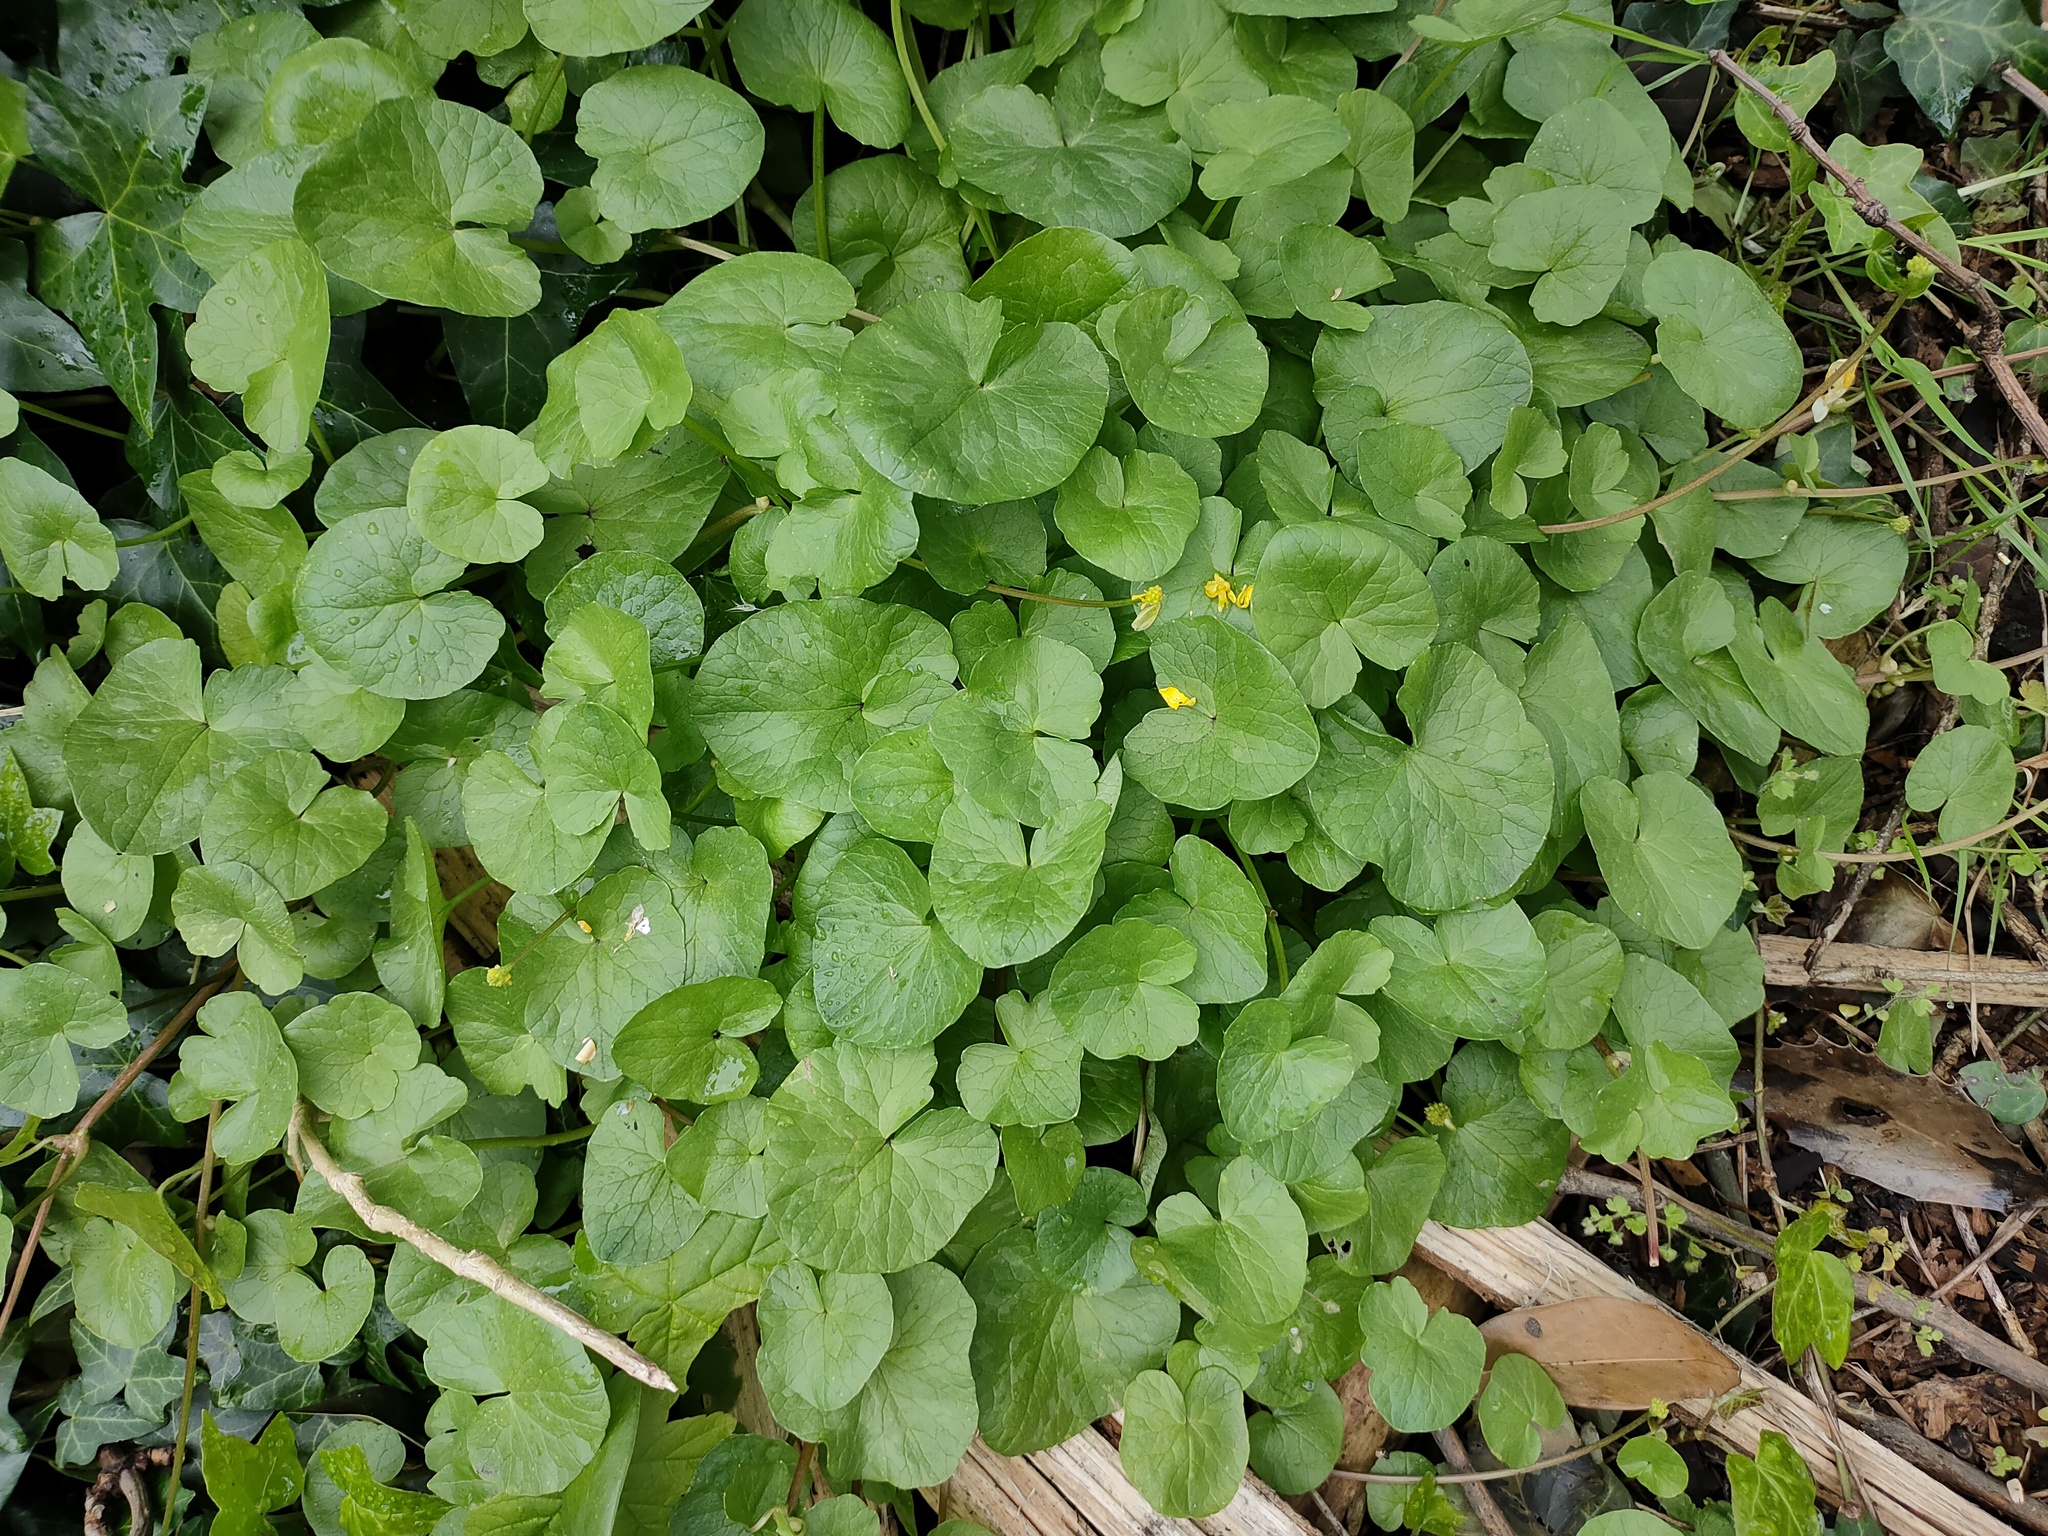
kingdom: Plantae
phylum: Tracheophyta
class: Magnoliopsida
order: Ranunculales
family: Ranunculaceae
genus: Ficaria
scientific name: Ficaria verna
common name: Lesser celandine
